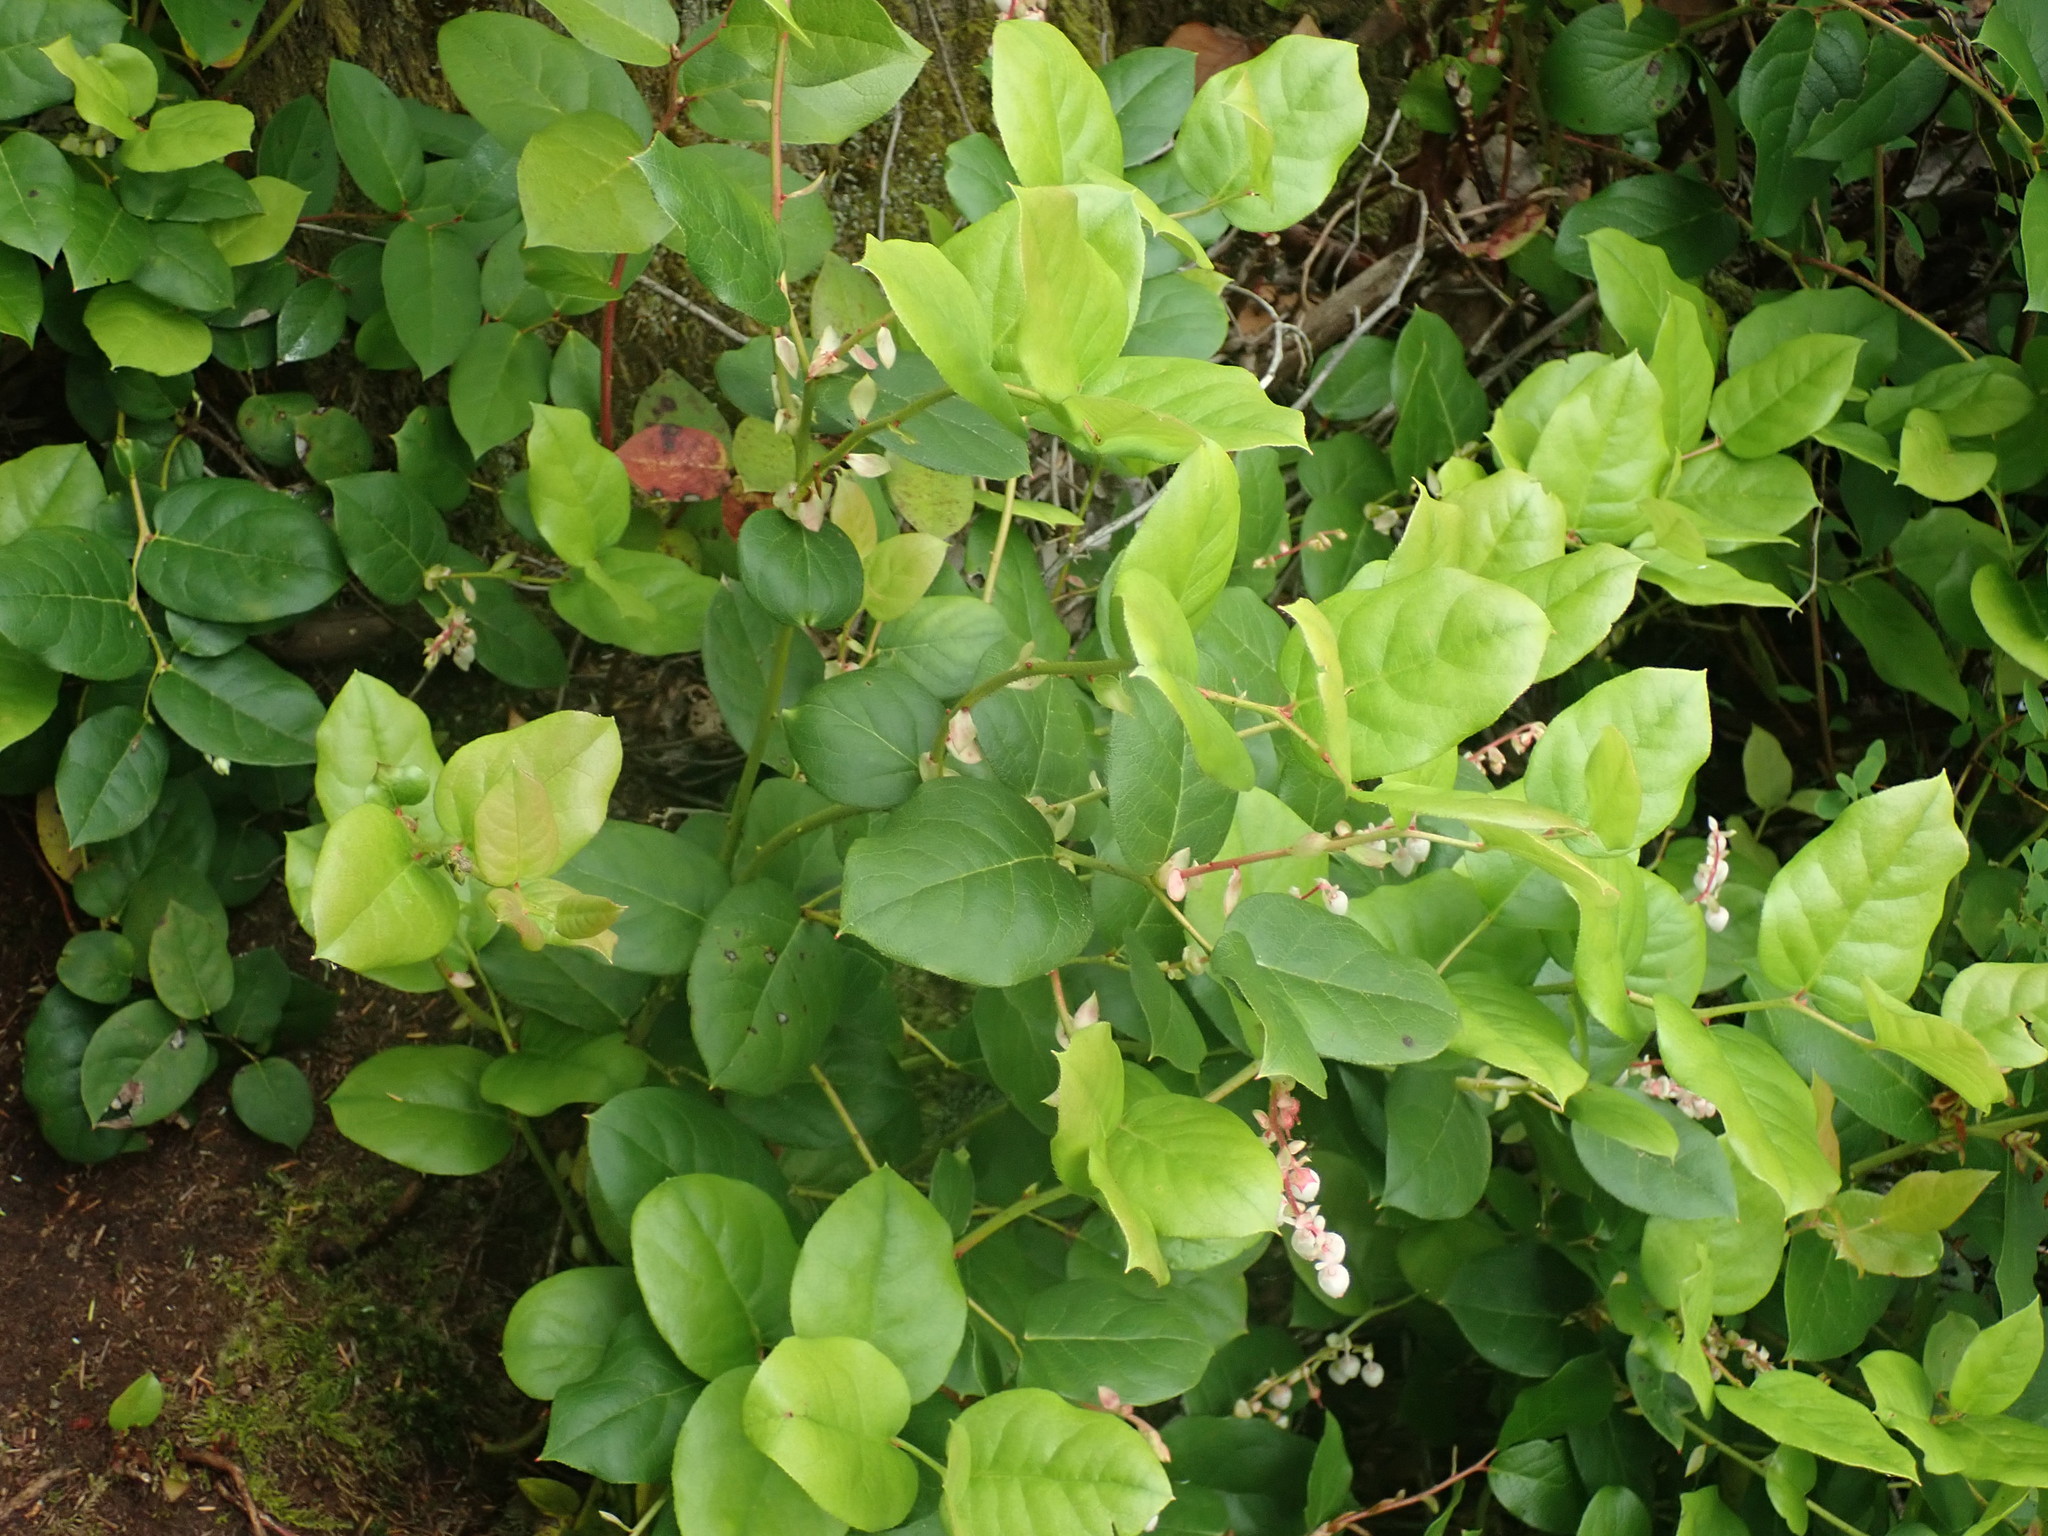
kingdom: Plantae
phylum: Tracheophyta
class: Magnoliopsida
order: Ericales
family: Ericaceae
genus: Gaultheria
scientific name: Gaultheria shallon
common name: Shallon
